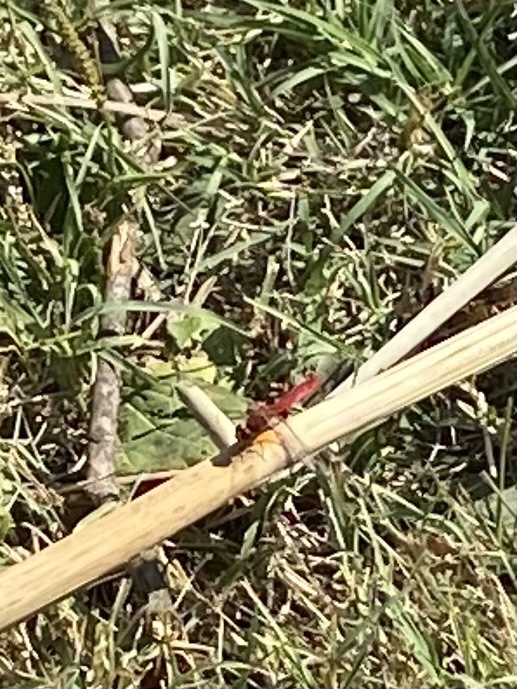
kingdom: Animalia
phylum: Arthropoda
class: Insecta
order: Odonata
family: Libellulidae
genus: Crocothemis
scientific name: Crocothemis erythraea
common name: Scarlet dragonfly
